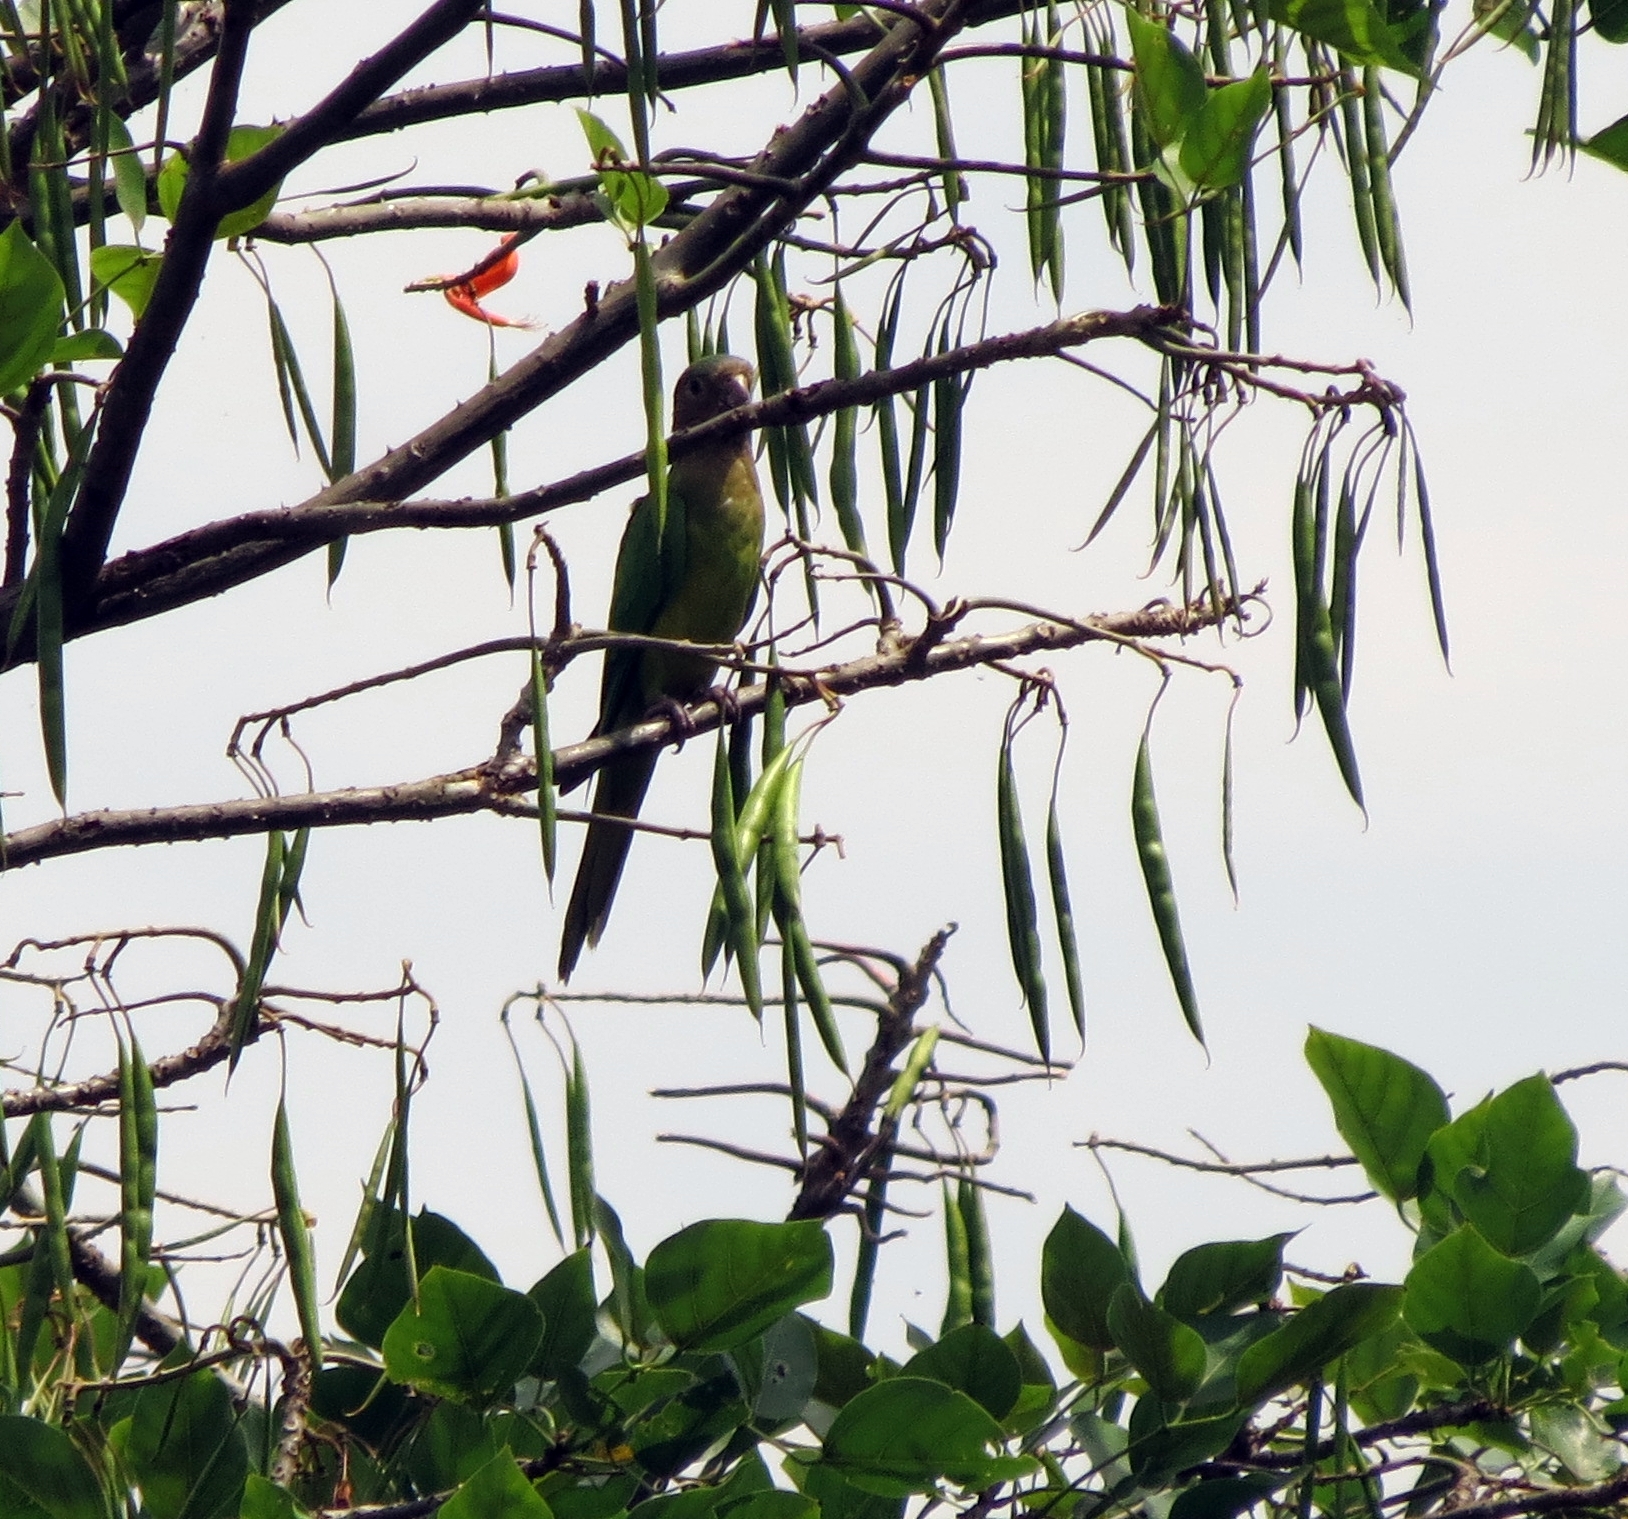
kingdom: Animalia
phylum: Chordata
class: Aves
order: Psittaciformes
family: Psittacidae
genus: Aratinga
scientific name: Aratinga pertinax
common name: Brown-throated parakeet
